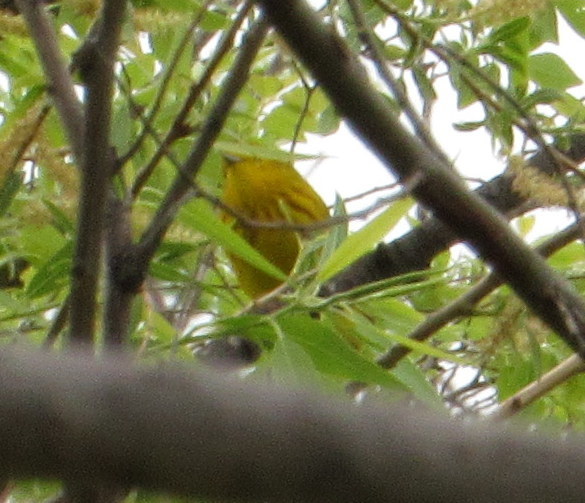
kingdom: Animalia
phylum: Chordata
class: Aves
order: Passeriformes
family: Parulidae
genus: Setophaga
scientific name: Setophaga petechia
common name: Yellow warbler
